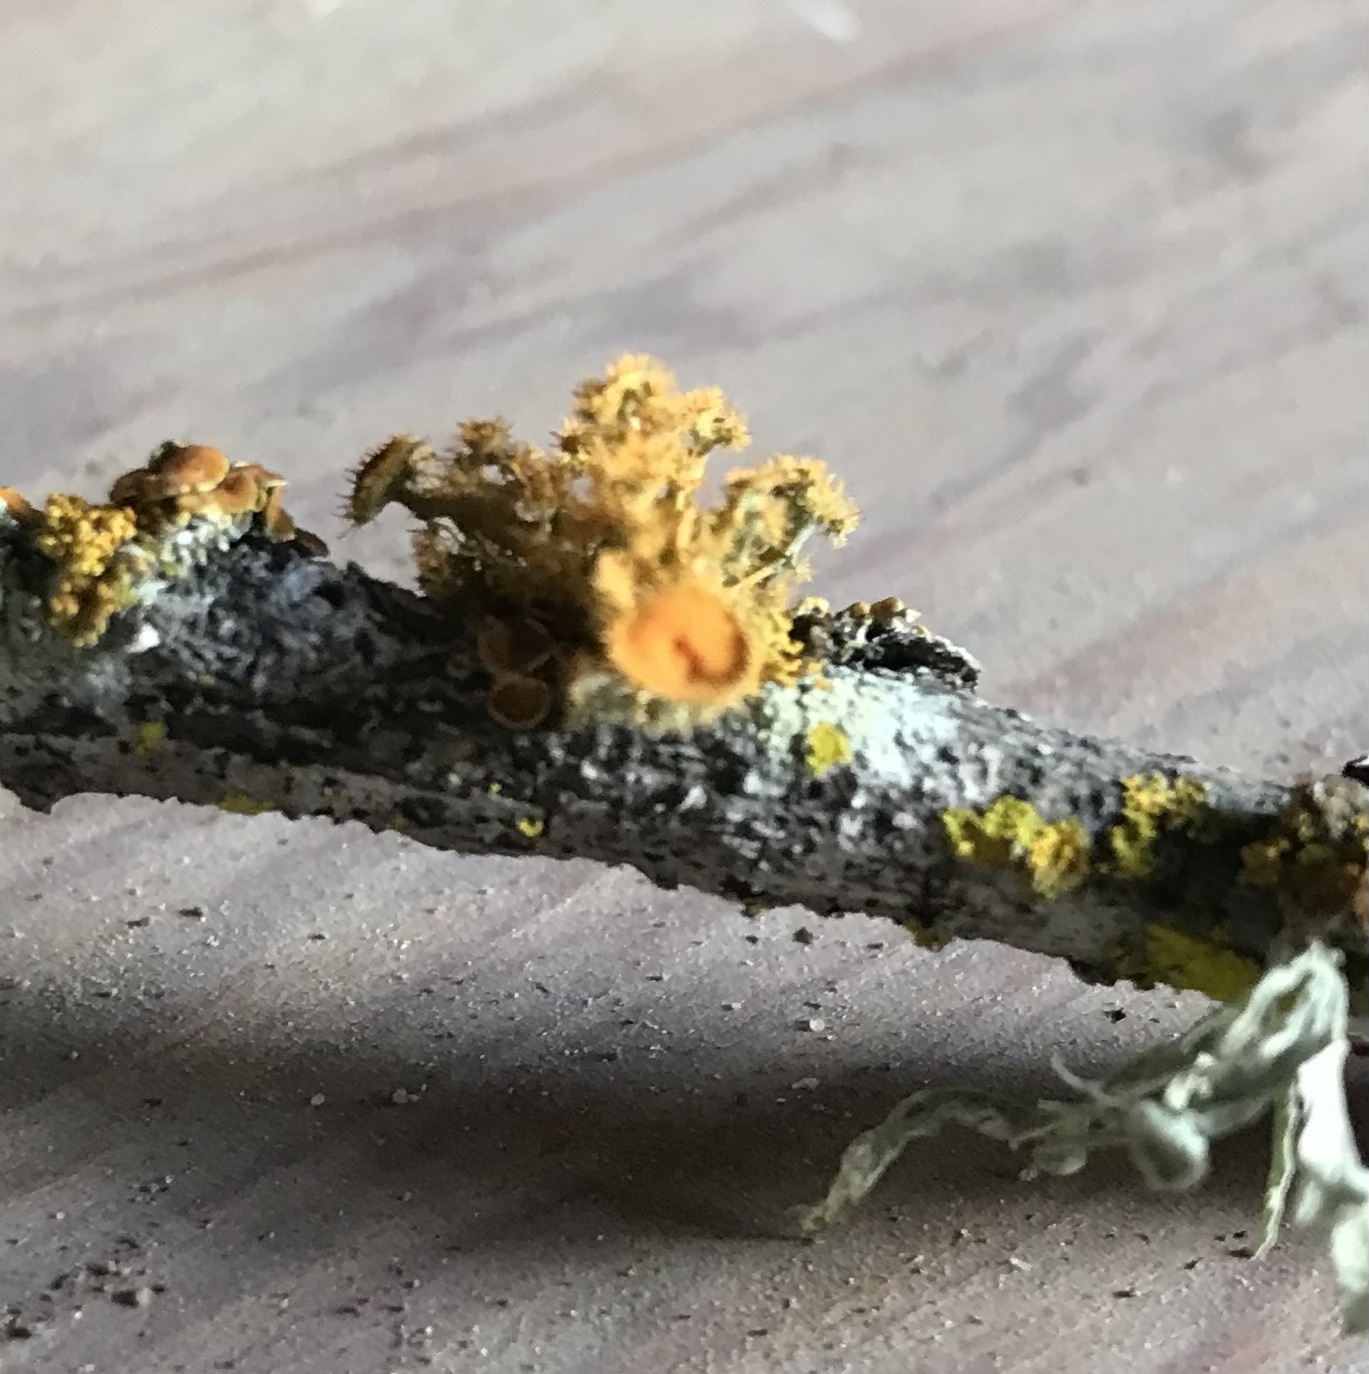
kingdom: Fungi
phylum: Ascomycota
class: Lecanoromycetes
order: Teloschistales
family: Teloschistaceae
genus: Niorma
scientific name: Niorma chrysophthalma
